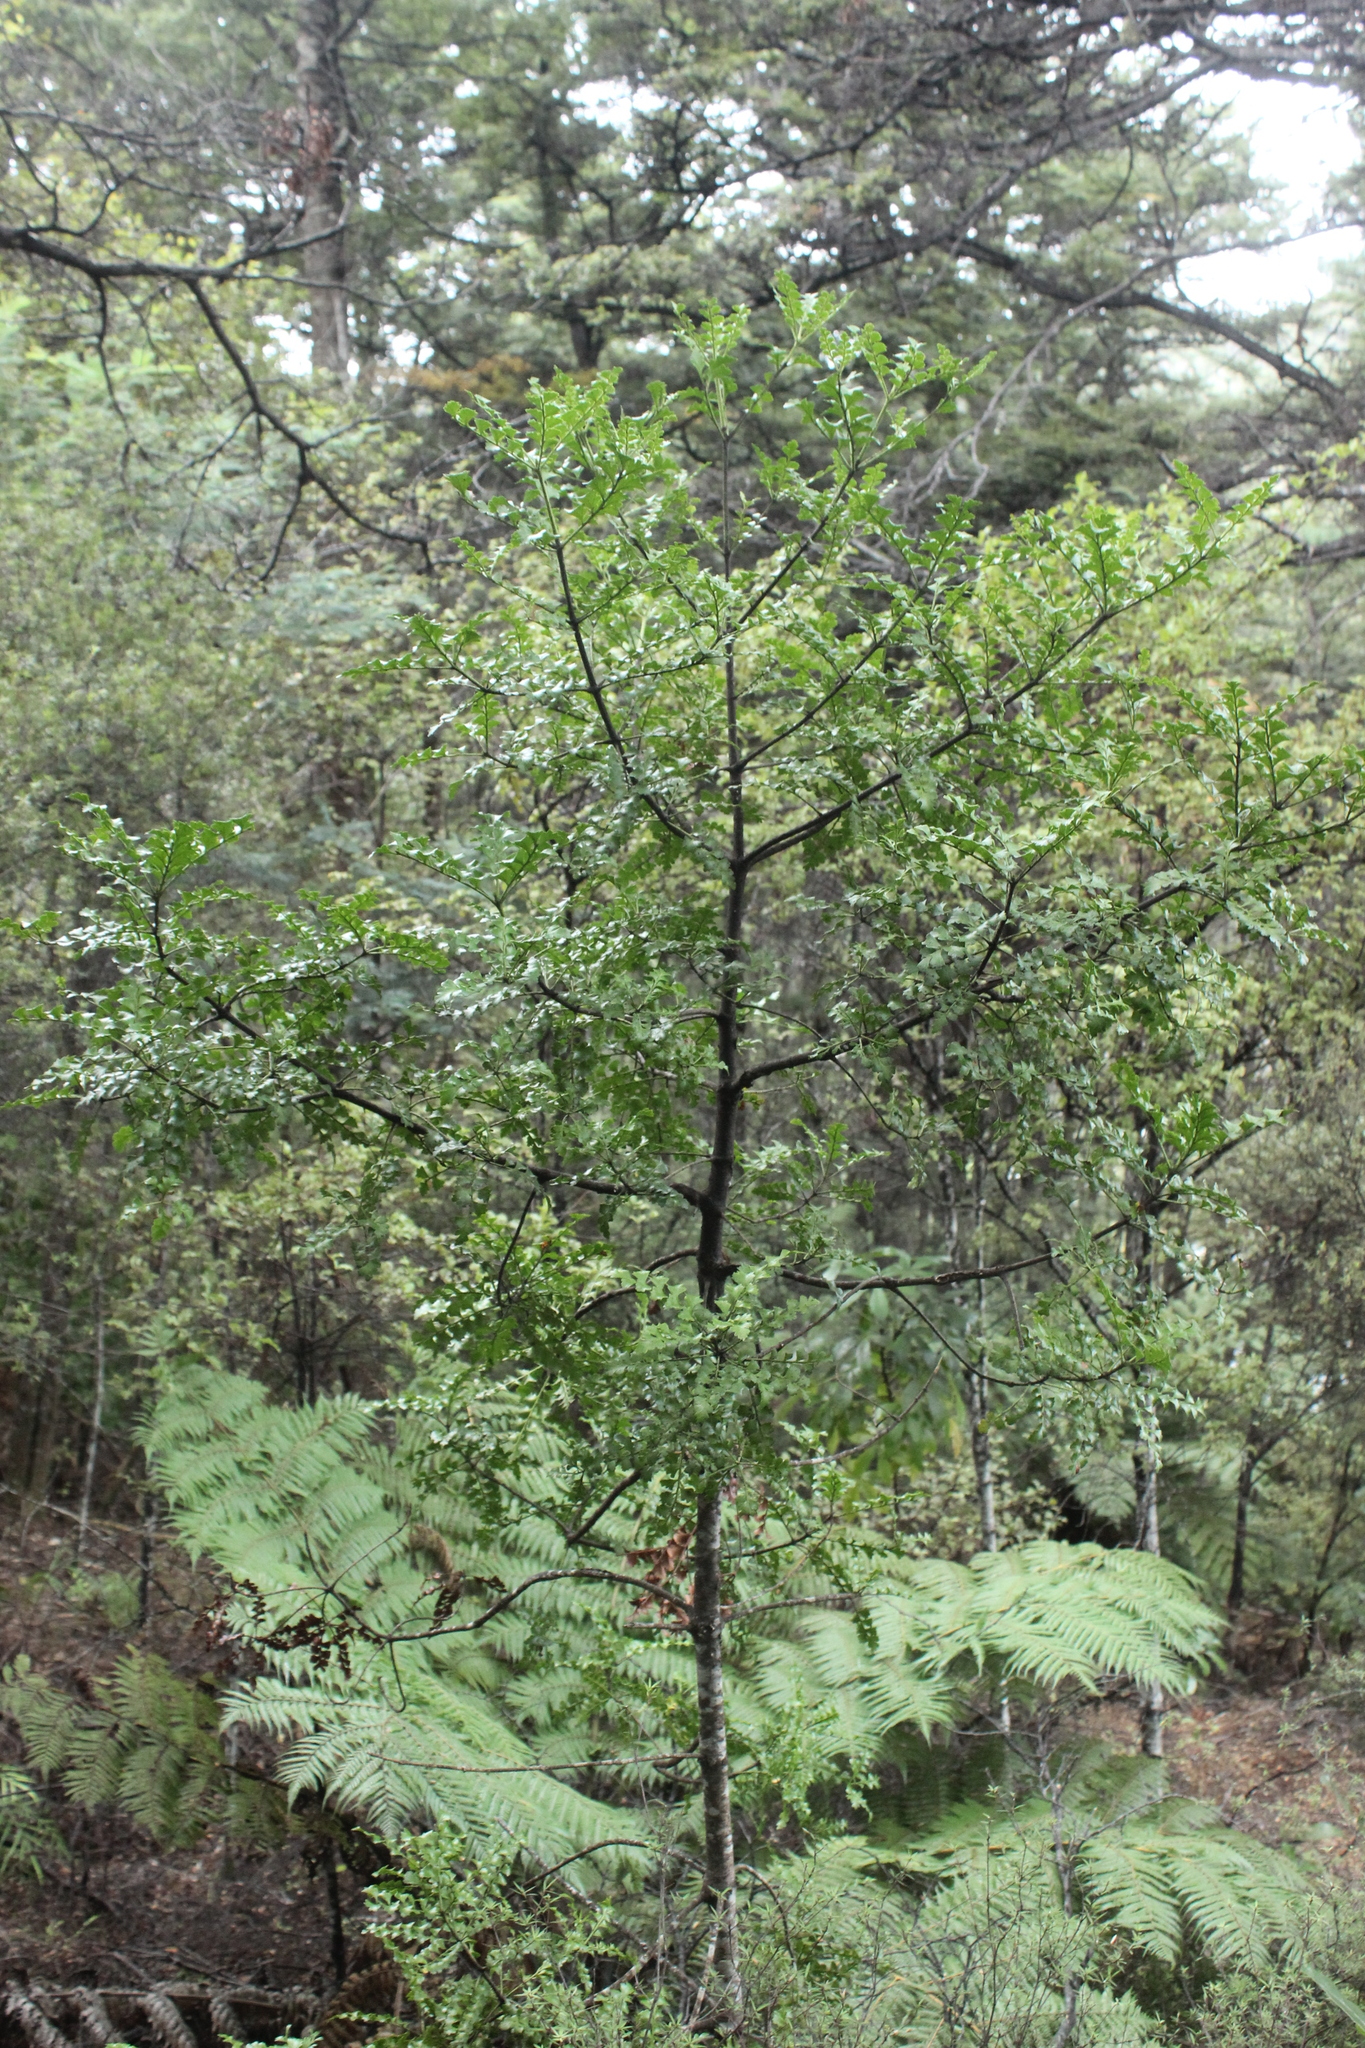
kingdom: Plantae
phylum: Tracheophyta
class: Pinopsida
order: Pinales
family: Phyllocladaceae
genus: Phyllocladus
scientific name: Phyllocladus trichomanoides
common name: Celery pine
